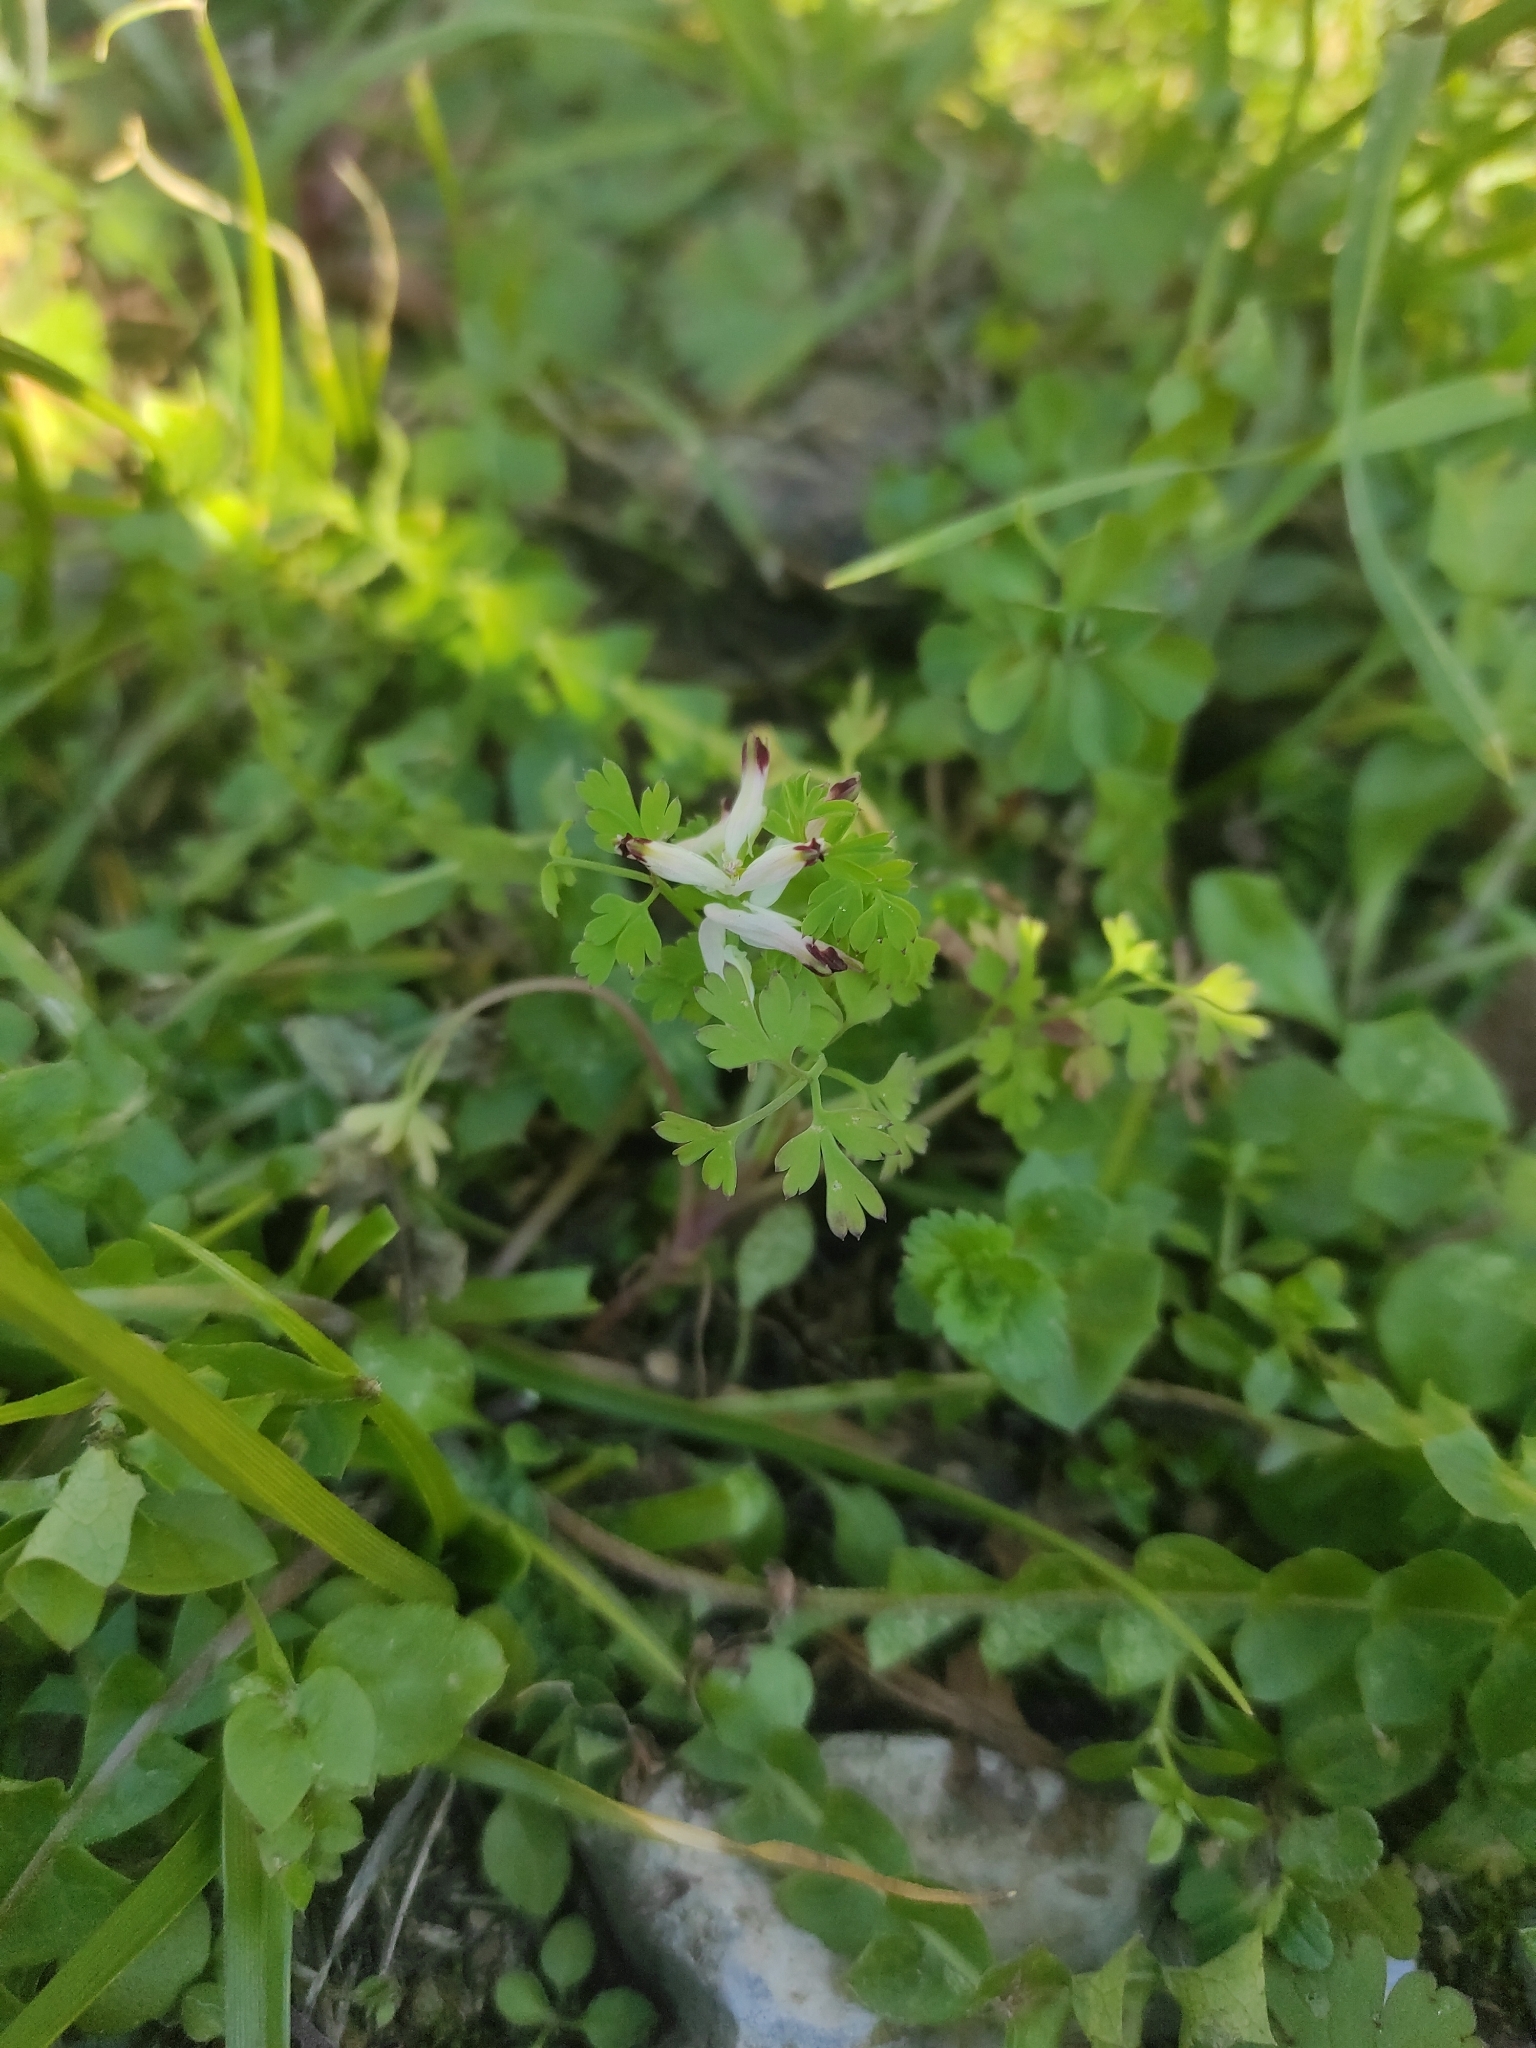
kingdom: Plantae
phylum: Tracheophyta
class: Magnoliopsida
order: Ranunculales
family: Papaveraceae
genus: Fumaria
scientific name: Fumaria capreolata
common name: White ramping-fumitory
